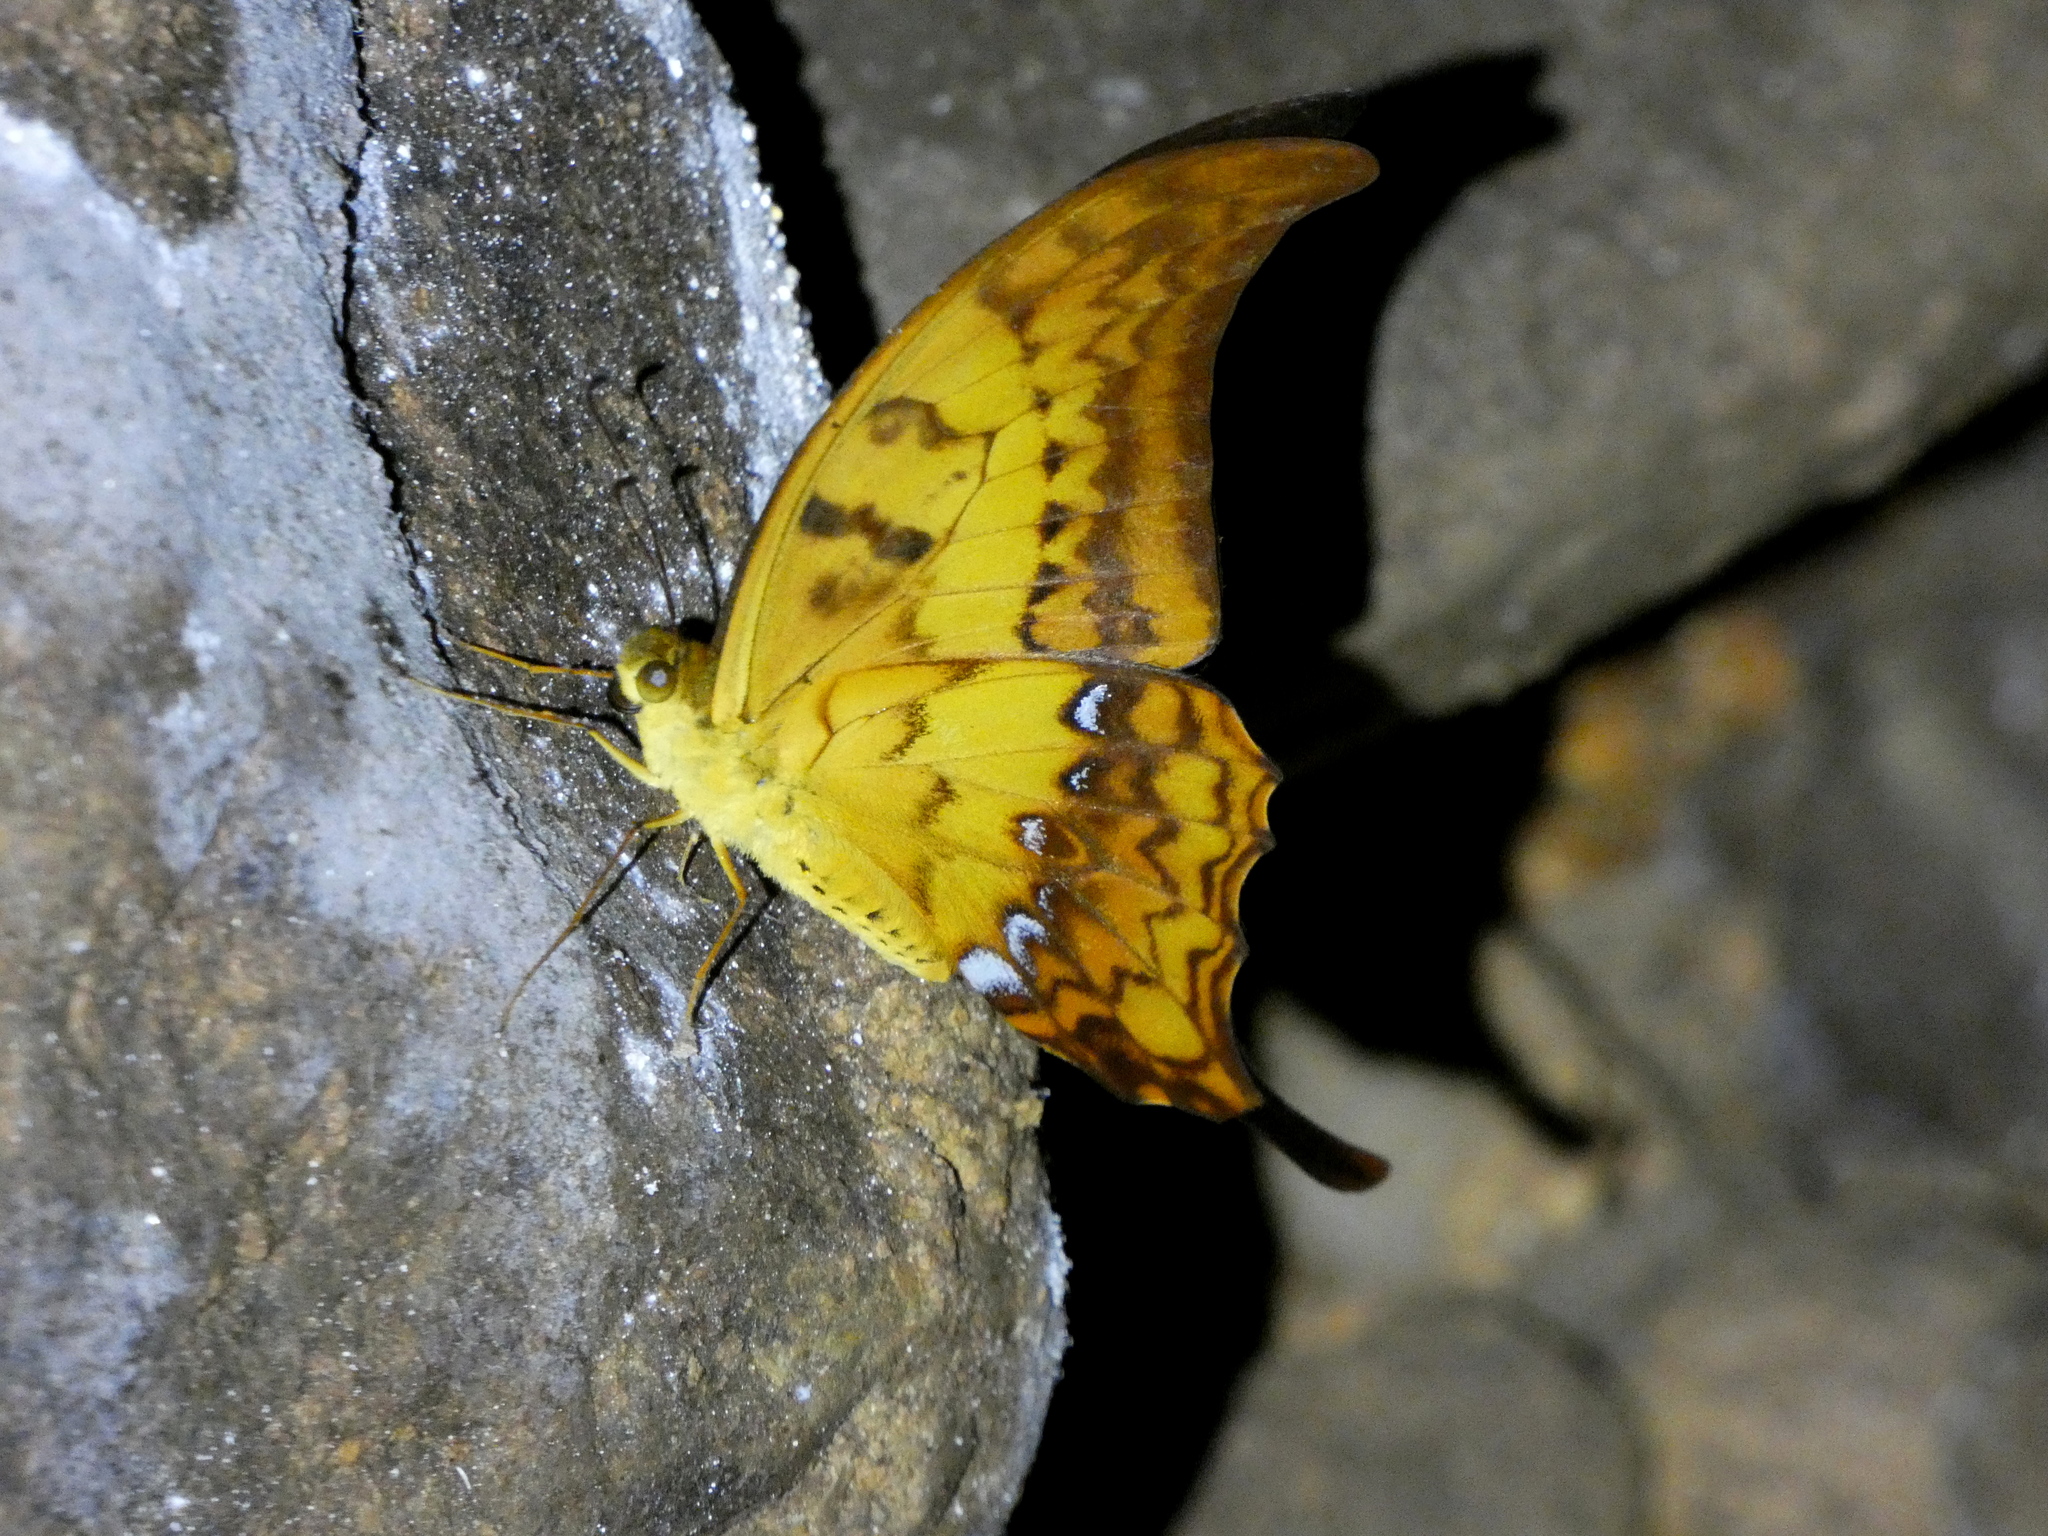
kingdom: Animalia
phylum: Arthropoda
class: Insecta
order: Lepidoptera
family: Papilionidae
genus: Meandrusa
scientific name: Meandrusa payeni
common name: Outlet sword
